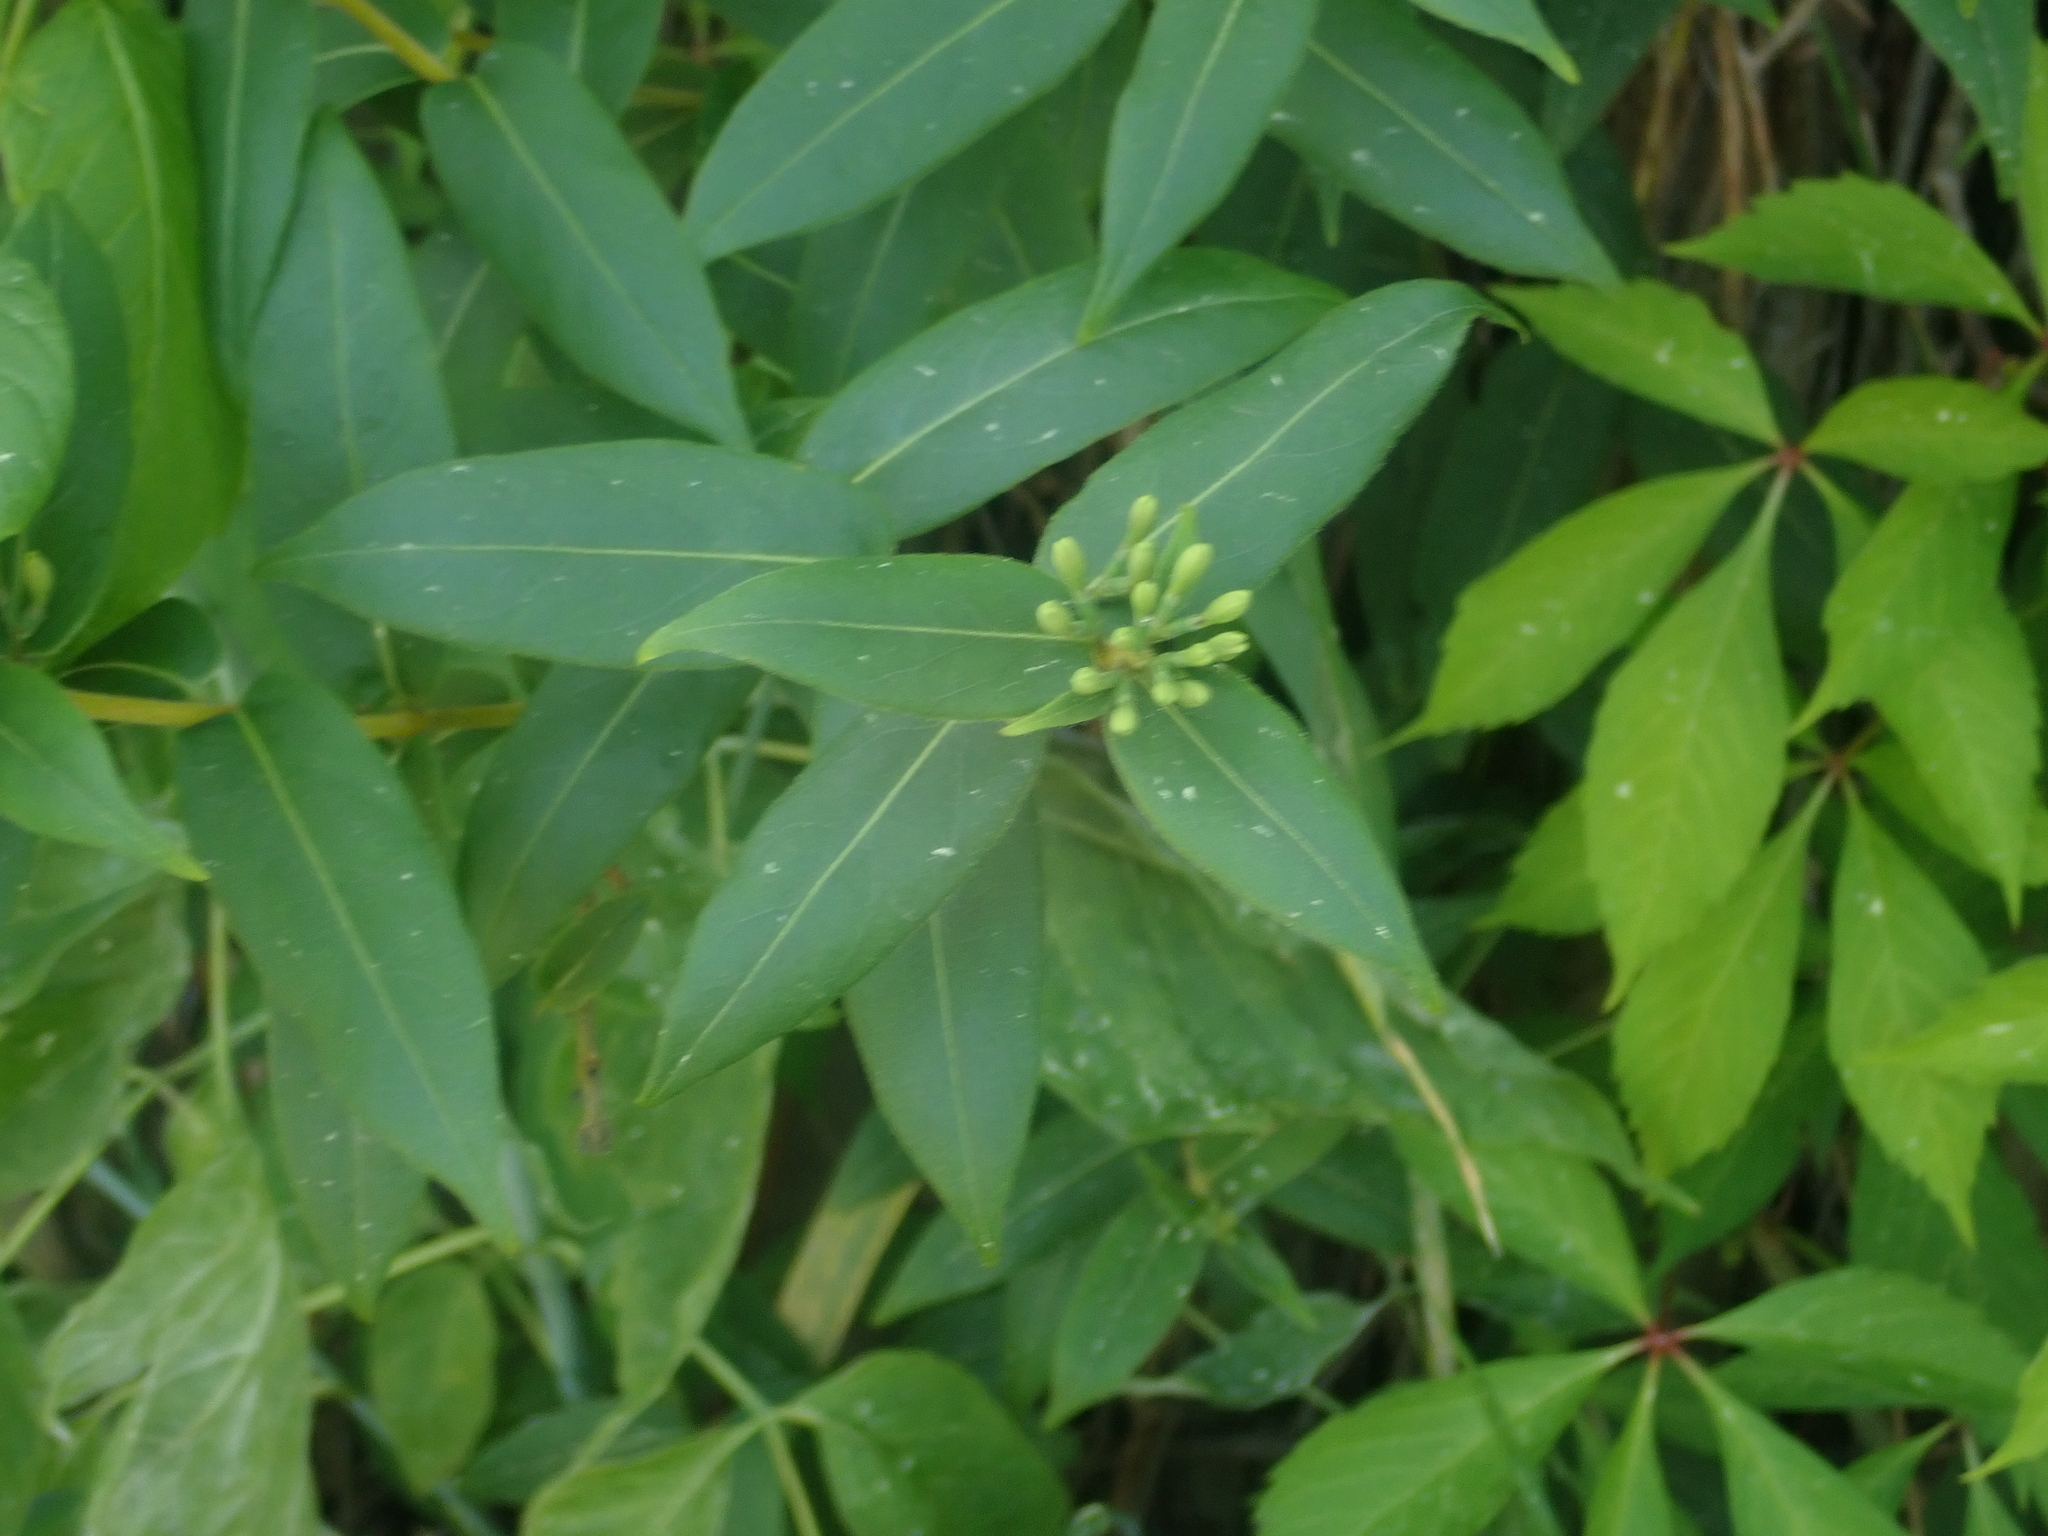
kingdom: Plantae
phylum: Tracheophyta
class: Magnoliopsida
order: Dipsacales
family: Caprifoliaceae
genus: Lonicera
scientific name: Lonicera acuminata
